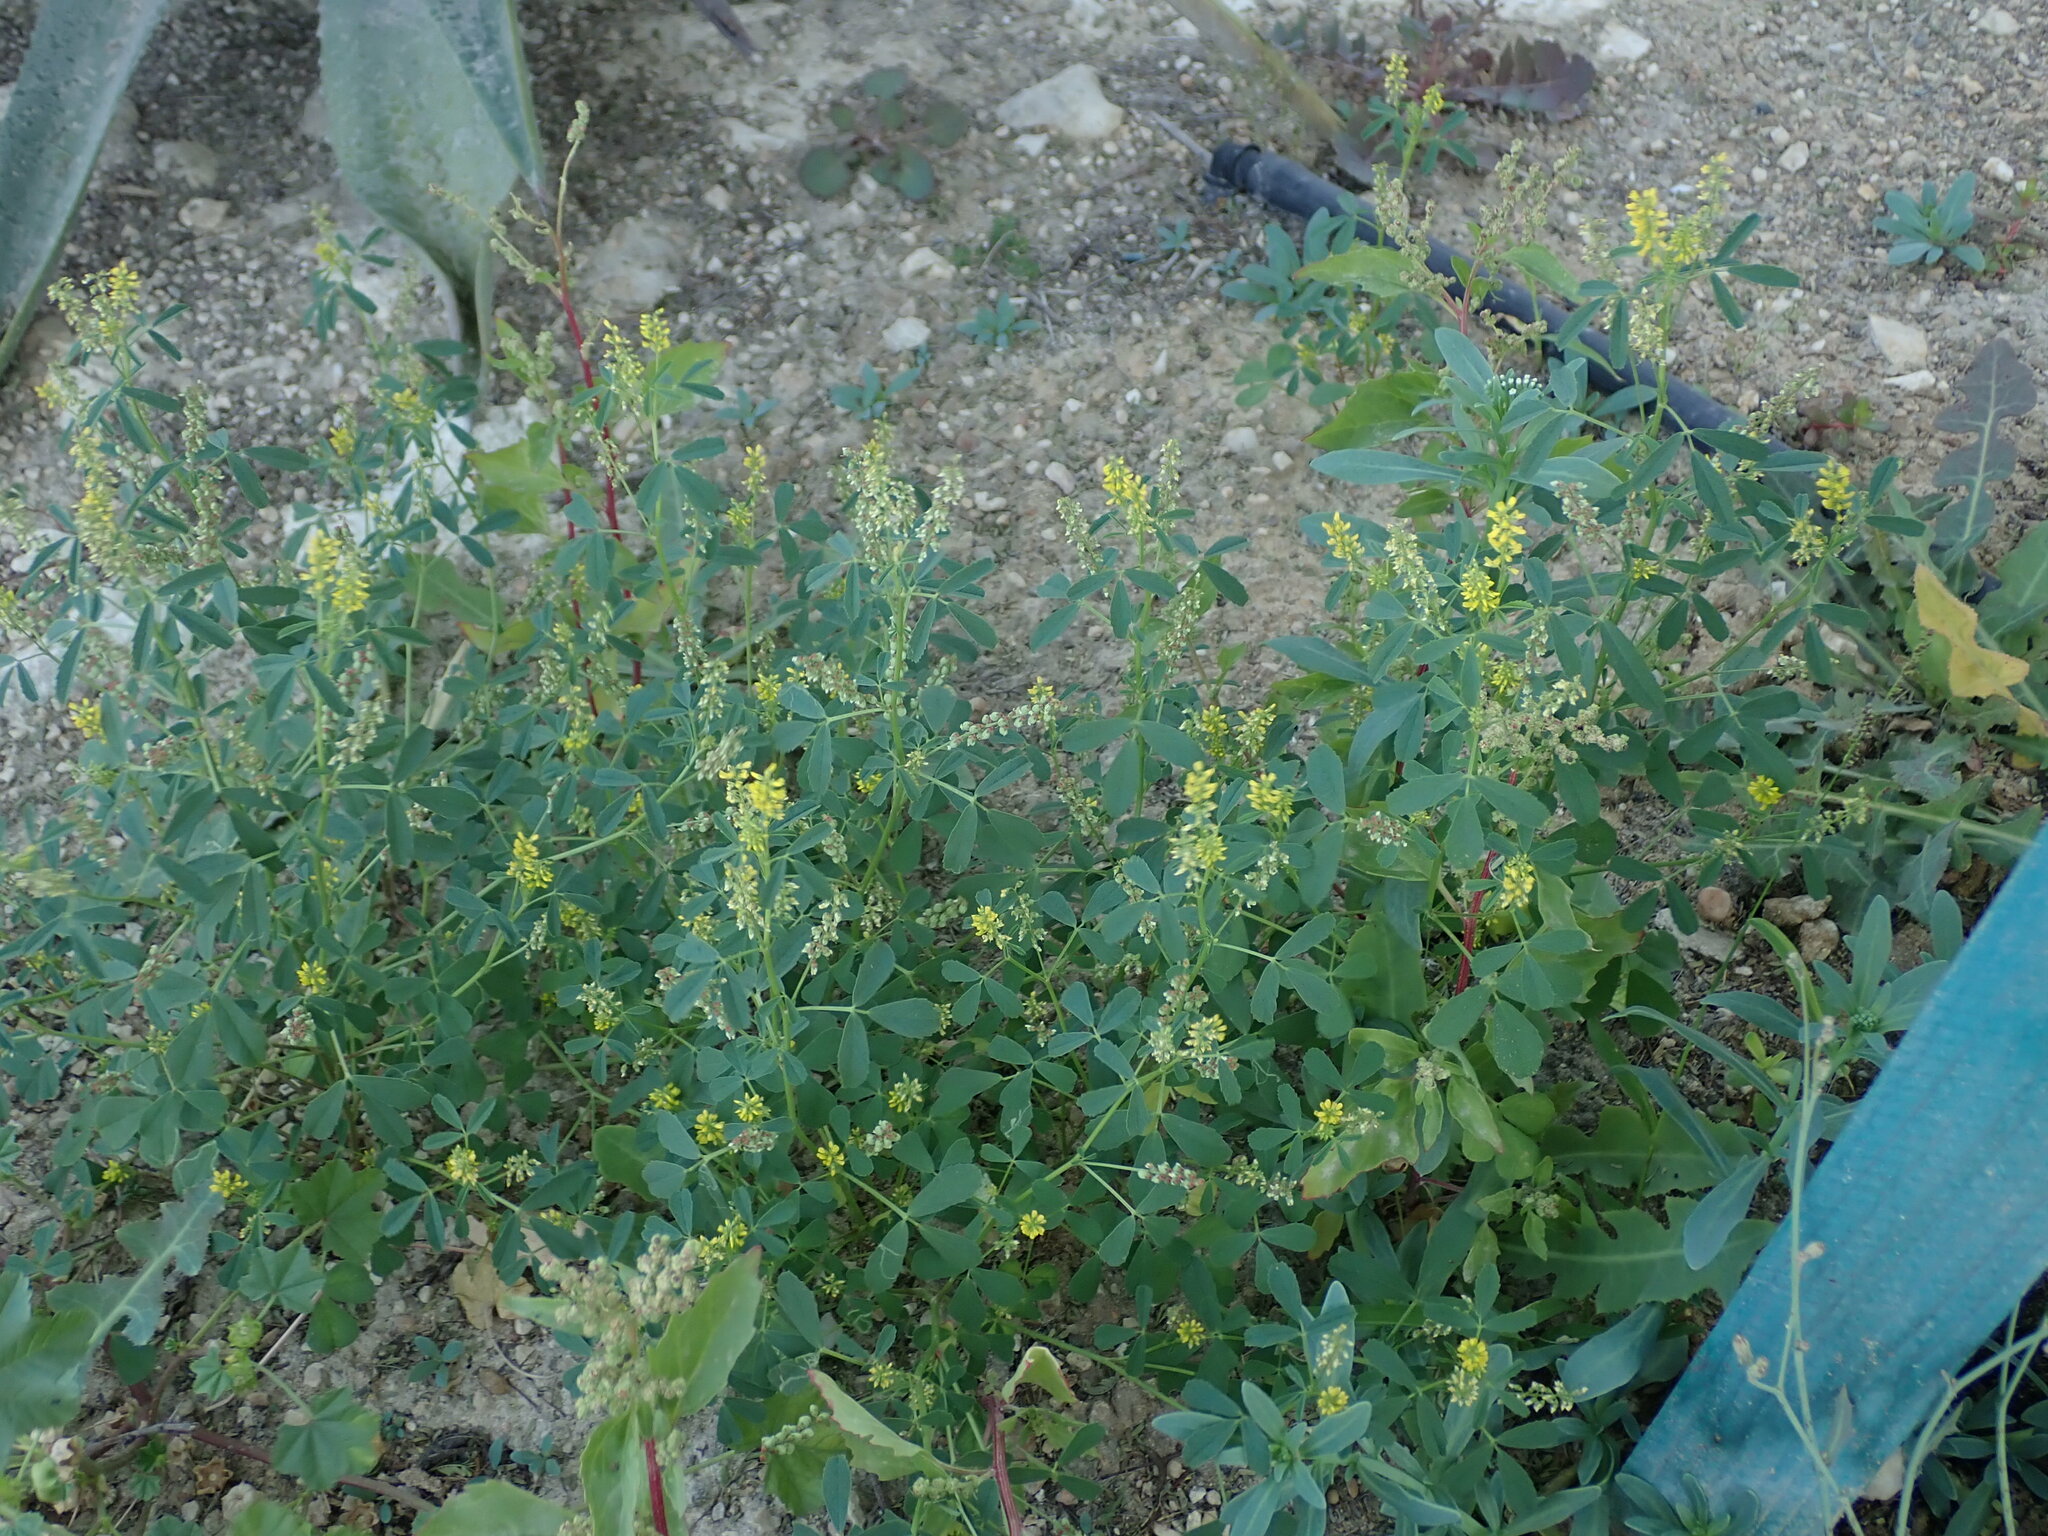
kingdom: Plantae
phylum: Tracheophyta
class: Magnoliopsida
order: Fabales
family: Fabaceae
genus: Melilotus
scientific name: Melilotus indicus
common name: Small melilot
